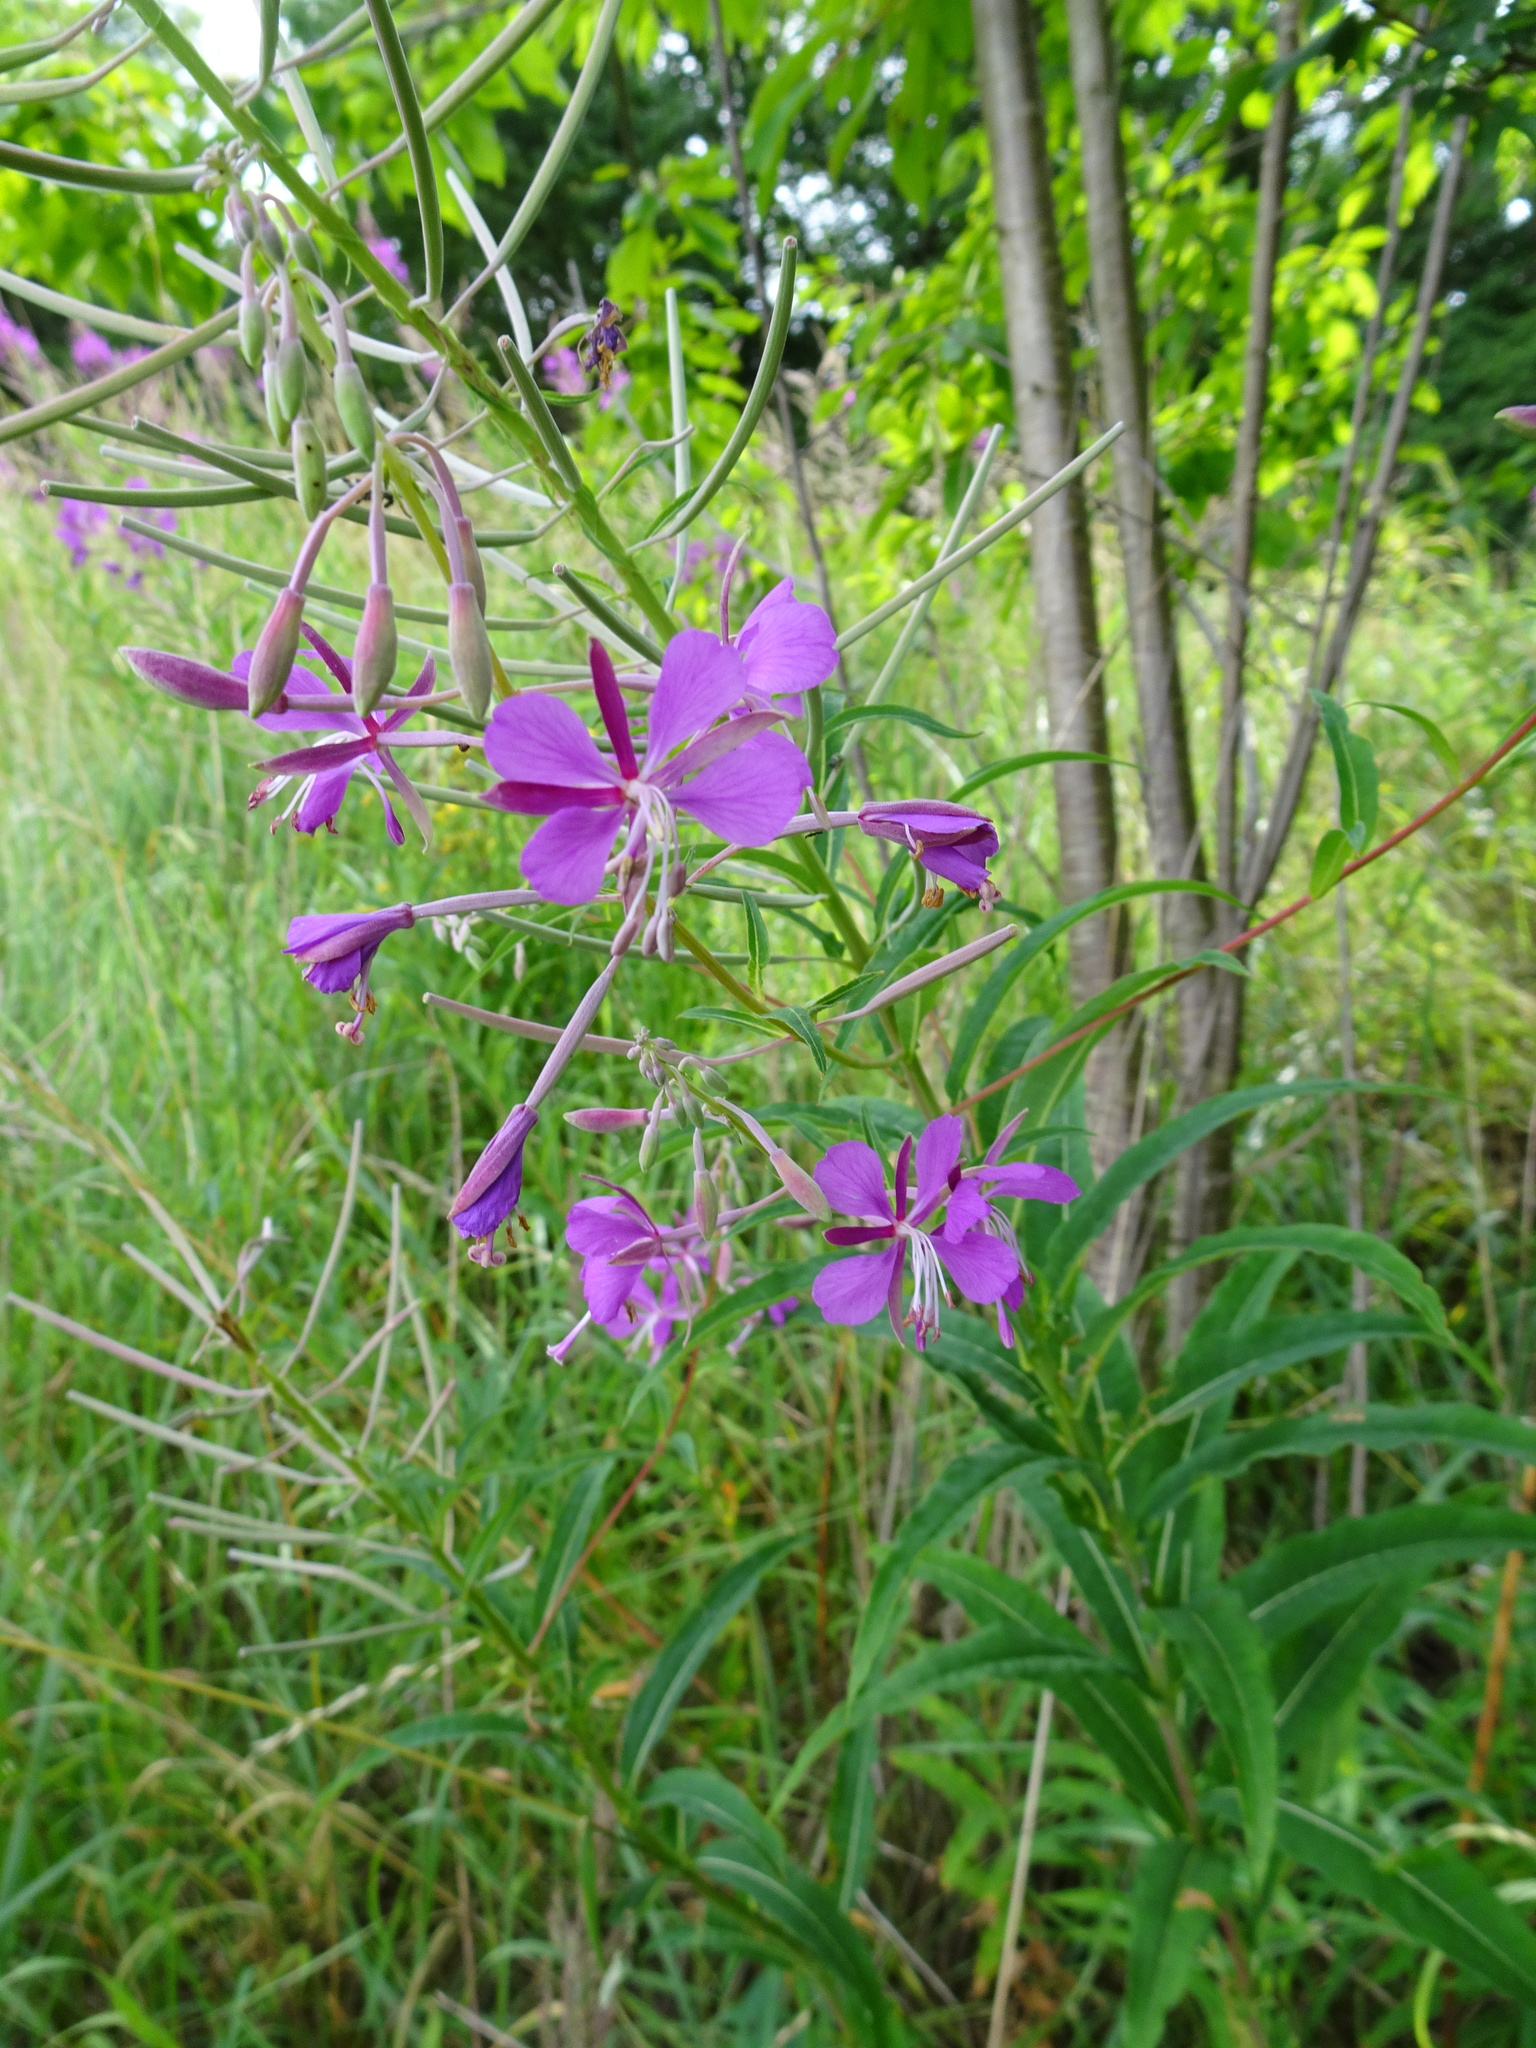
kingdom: Plantae
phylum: Tracheophyta
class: Magnoliopsida
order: Myrtales
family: Onagraceae
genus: Chamaenerion
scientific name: Chamaenerion angustifolium
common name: Fireweed
